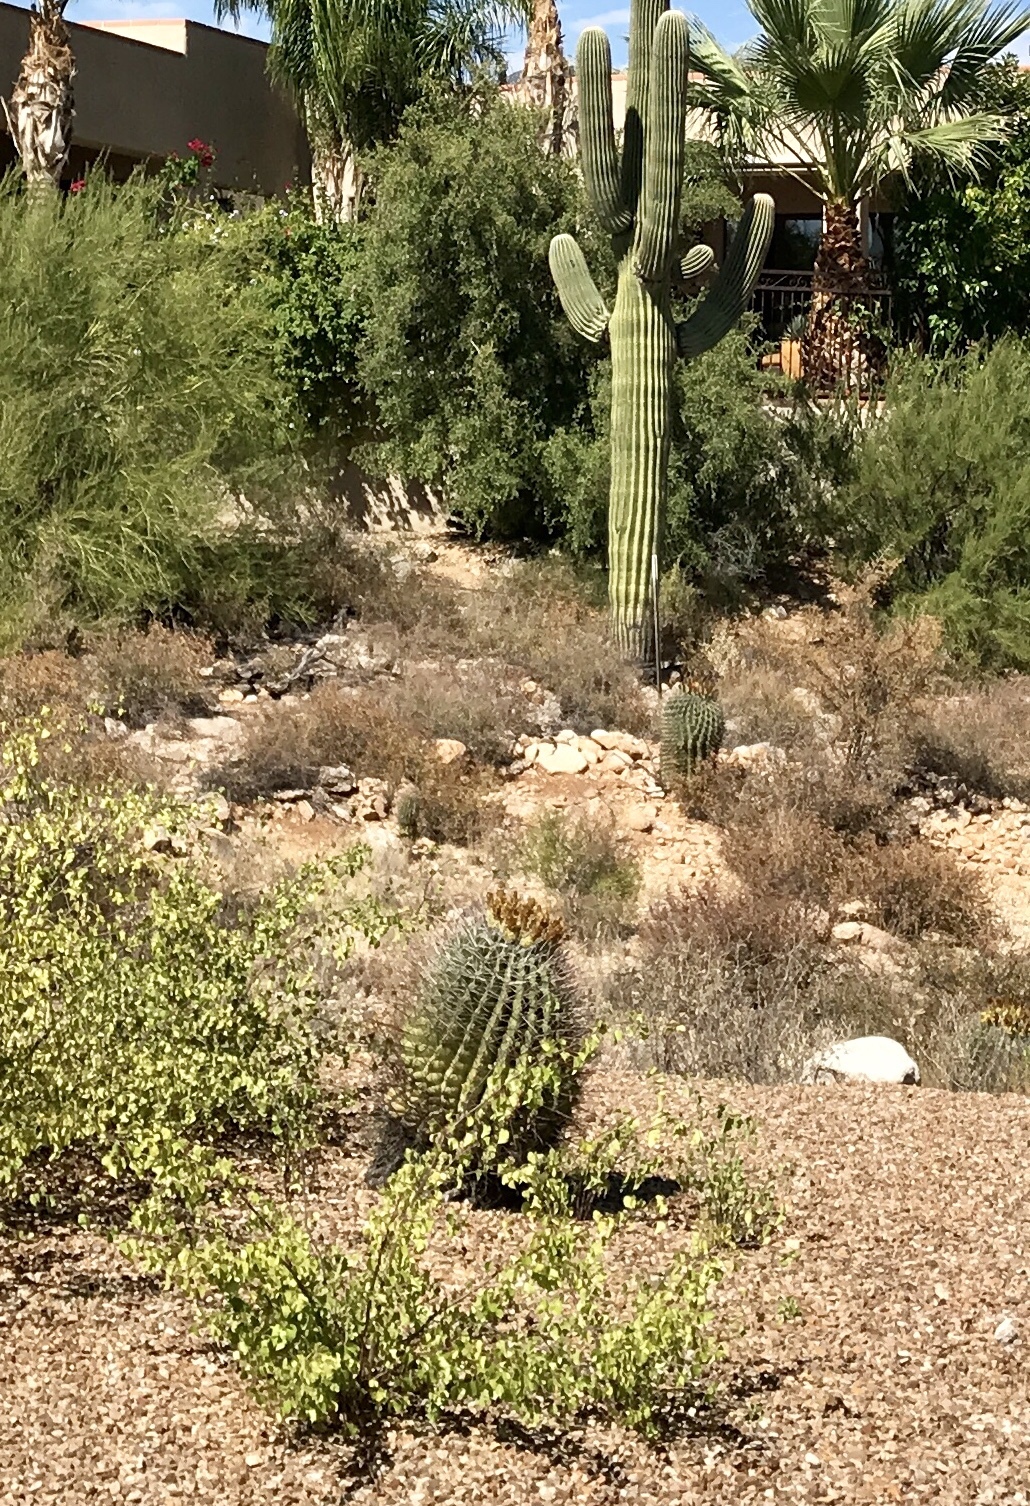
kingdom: Plantae
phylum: Tracheophyta
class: Magnoliopsida
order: Caryophyllales
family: Cactaceae
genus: Ferocactus
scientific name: Ferocactus wislizeni
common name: Candy barrel cactus
